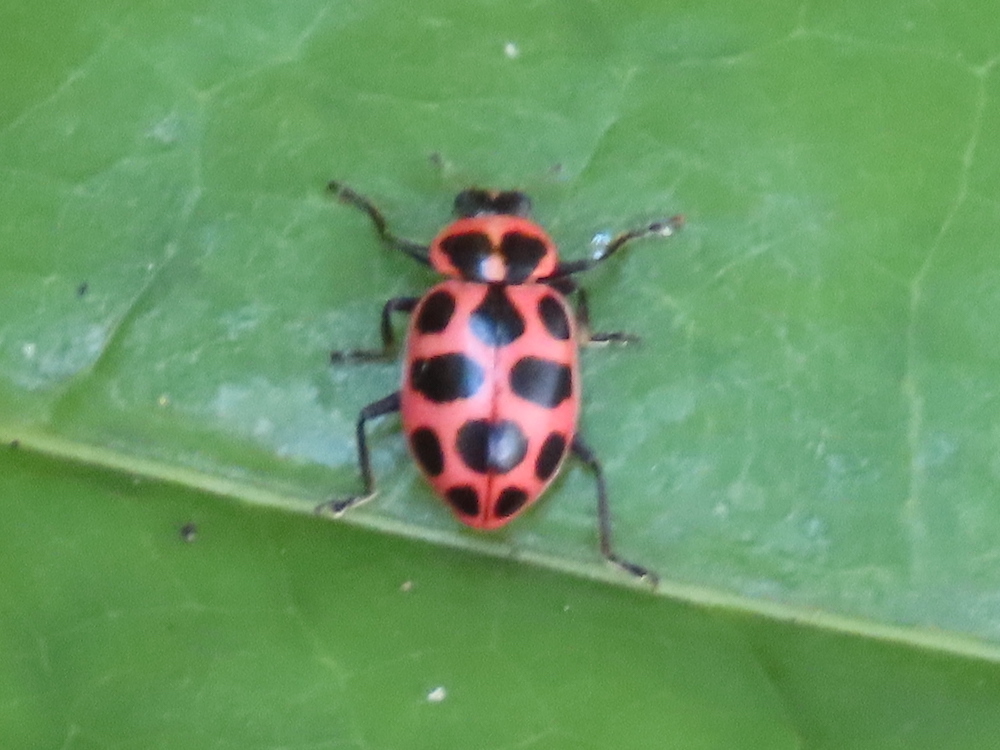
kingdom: Animalia
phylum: Arthropoda
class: Insecta
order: Coleoptera
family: Coccinellidae
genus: Coleomegilla
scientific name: Coleomegilla maculata
